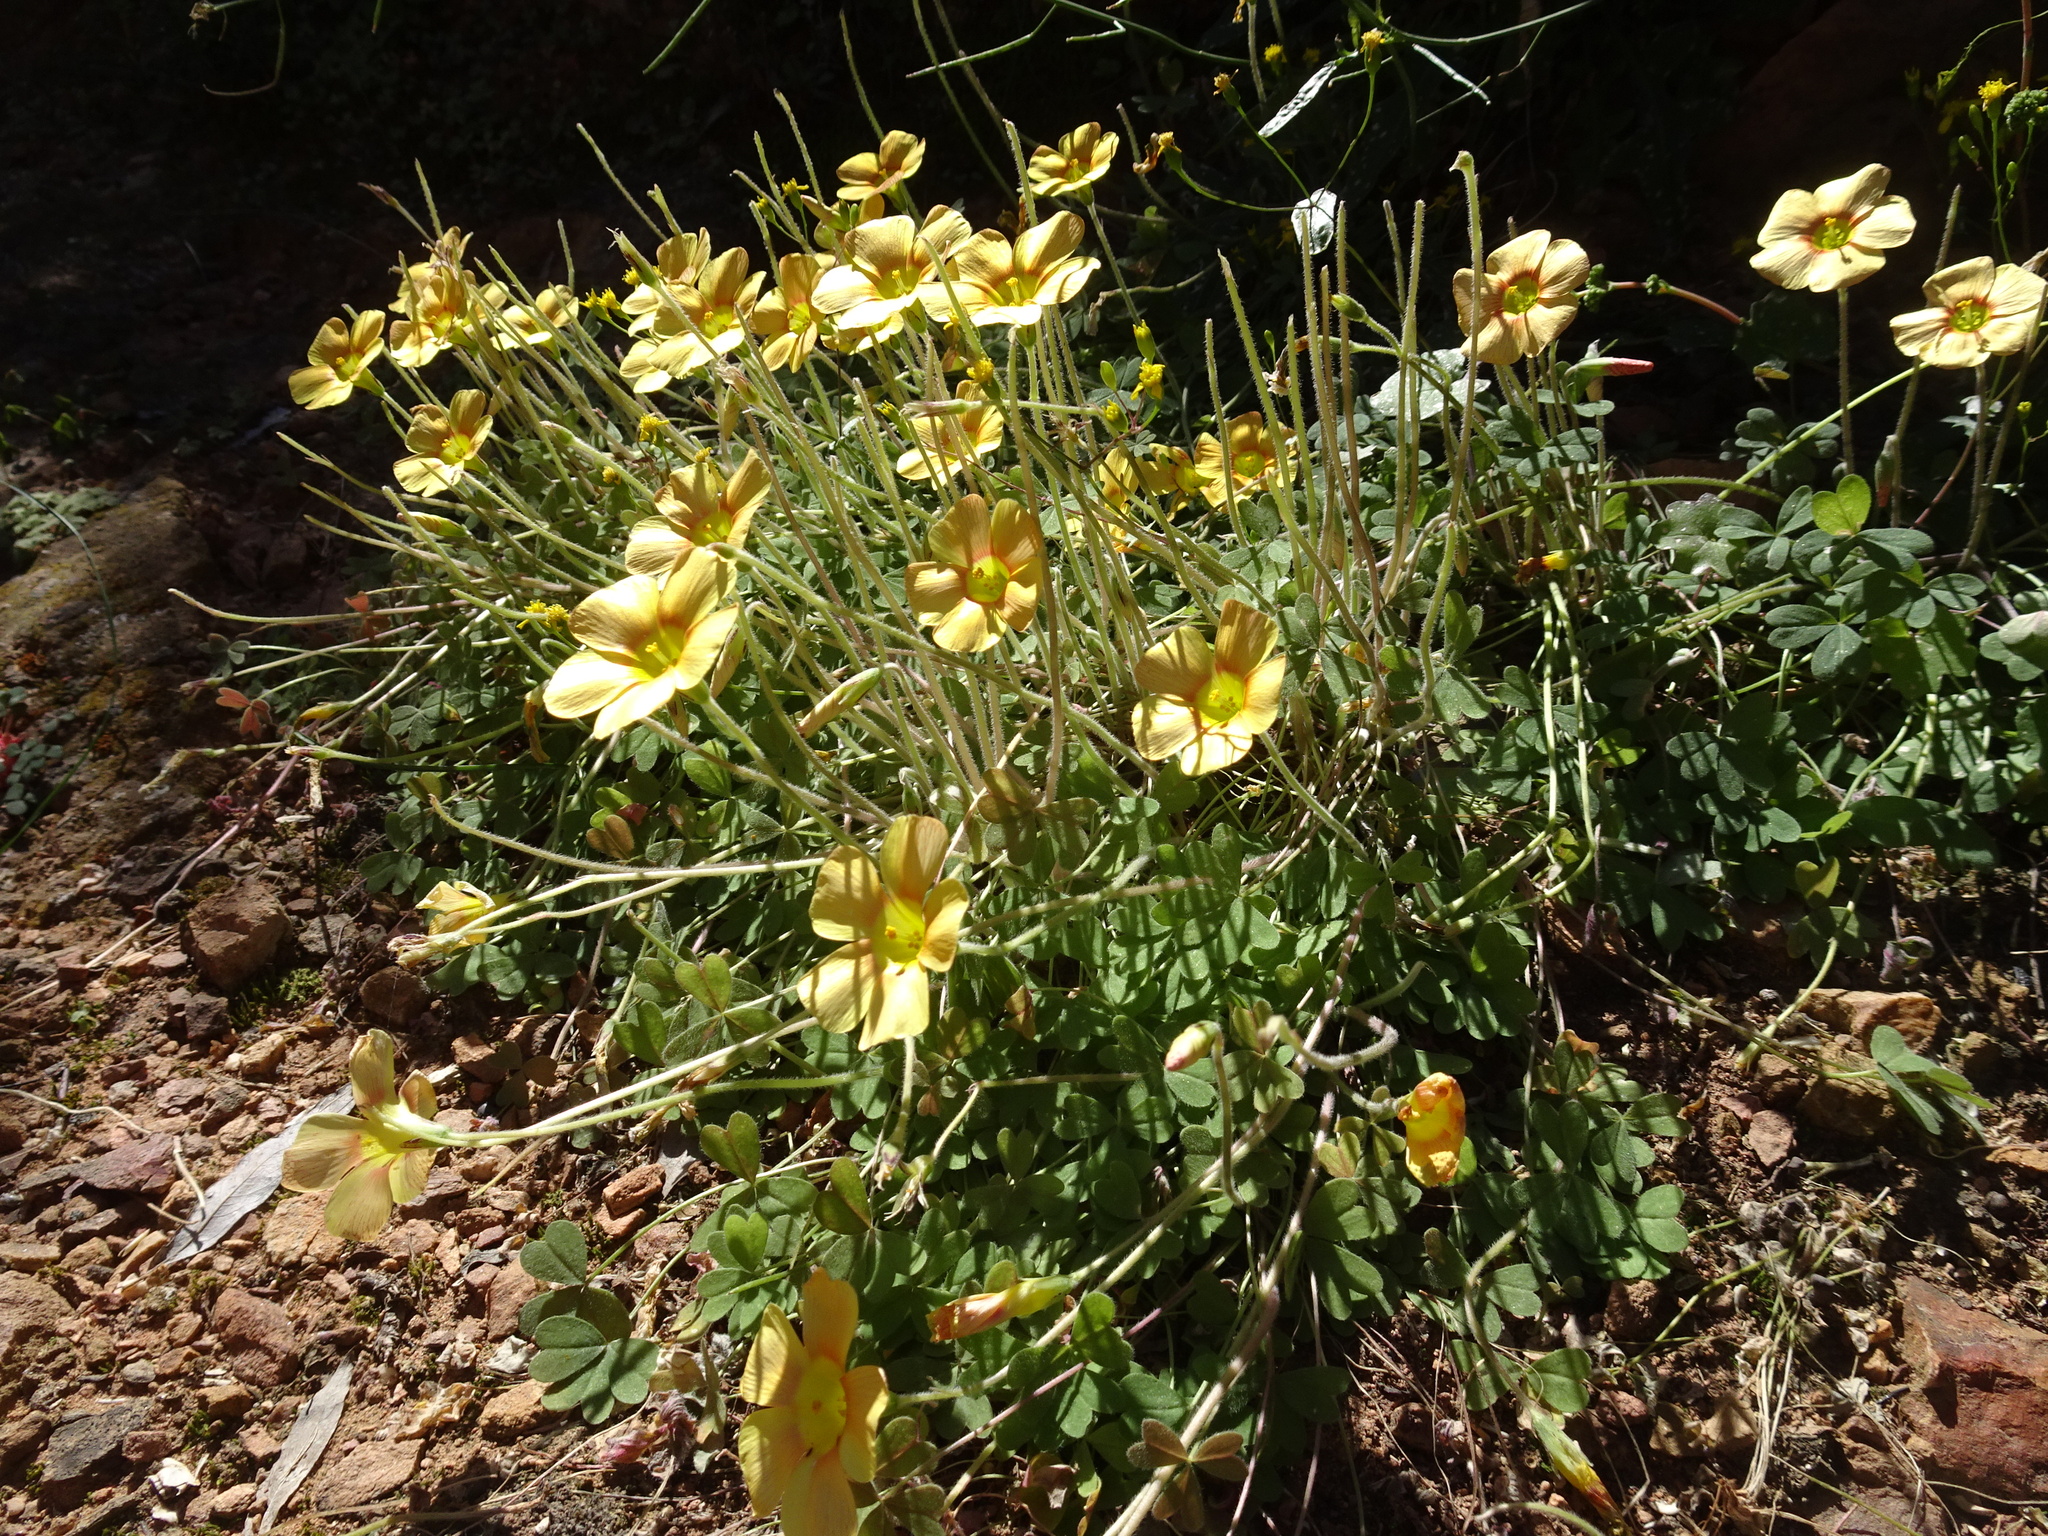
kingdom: Plantae
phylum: Tracheophyta
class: Magnoliopsida
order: Oxalidales
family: Oxalidaceae
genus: Oxalis
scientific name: Oxalis obtusa
